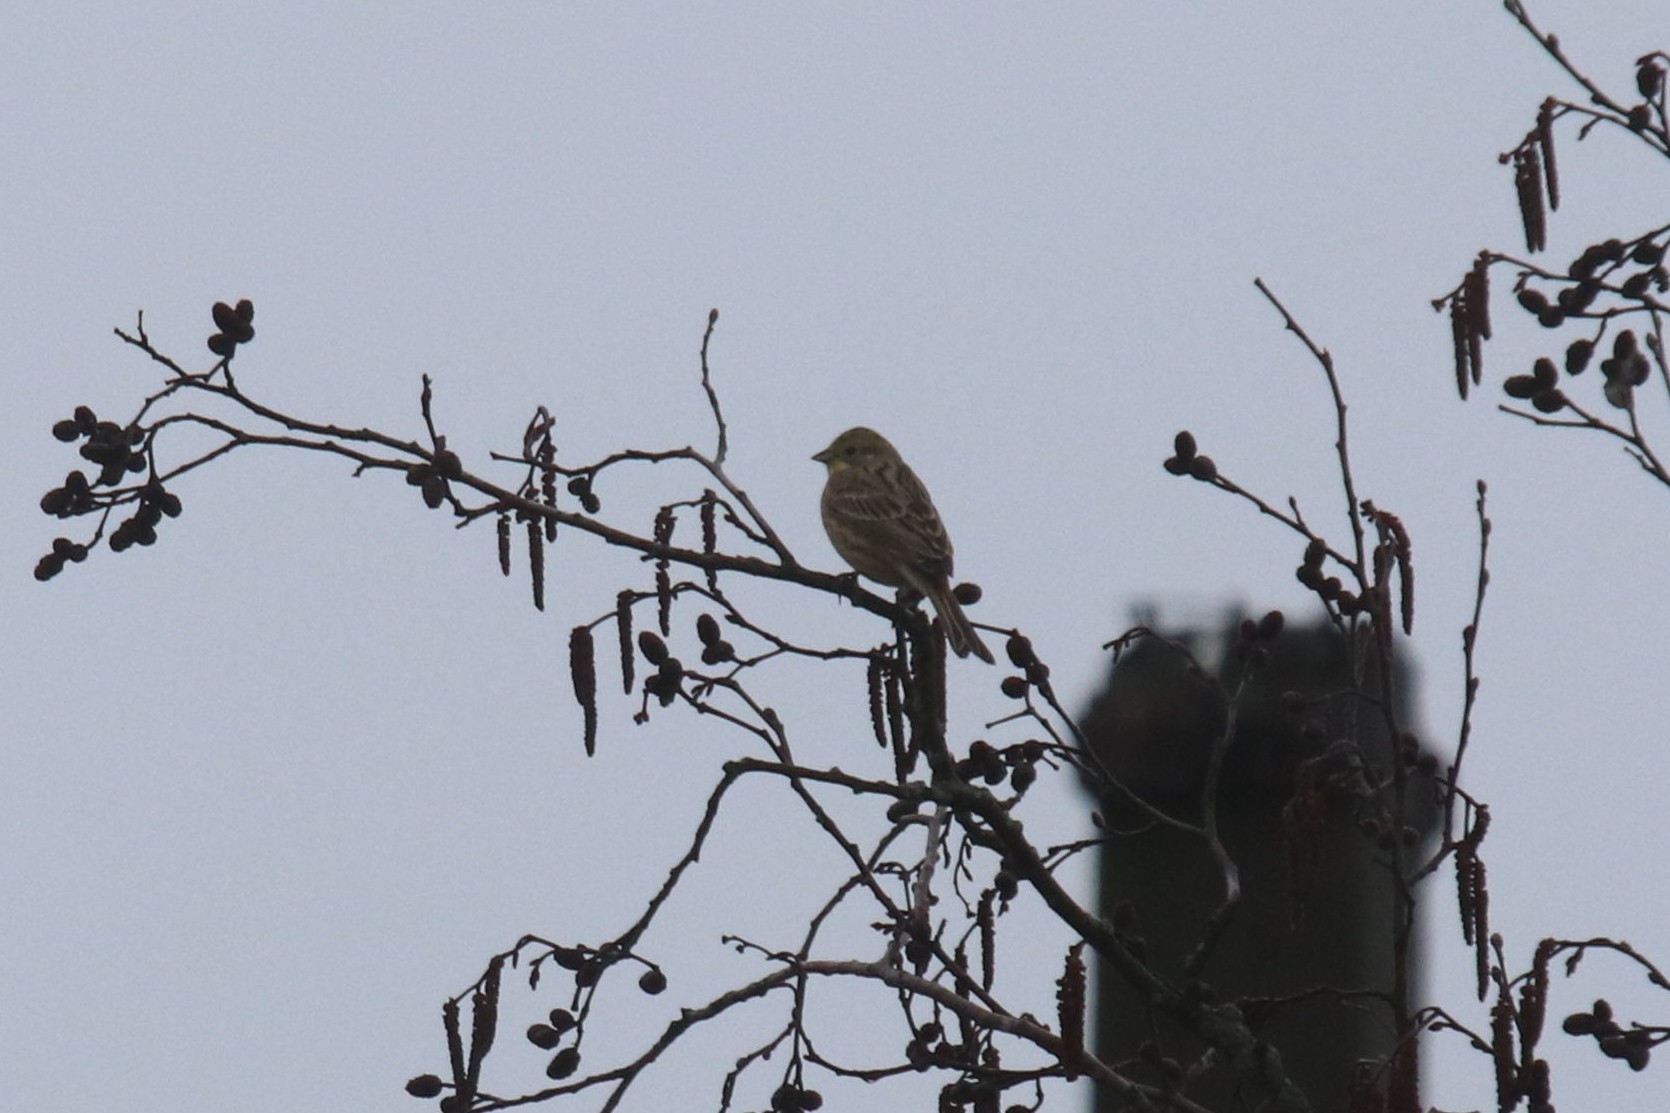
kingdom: Animalia
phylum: Chordata
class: Aves
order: Passeriformes
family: Emberizidae
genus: Emberiza
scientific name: Emberiza citrinella
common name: Yellowhammer
